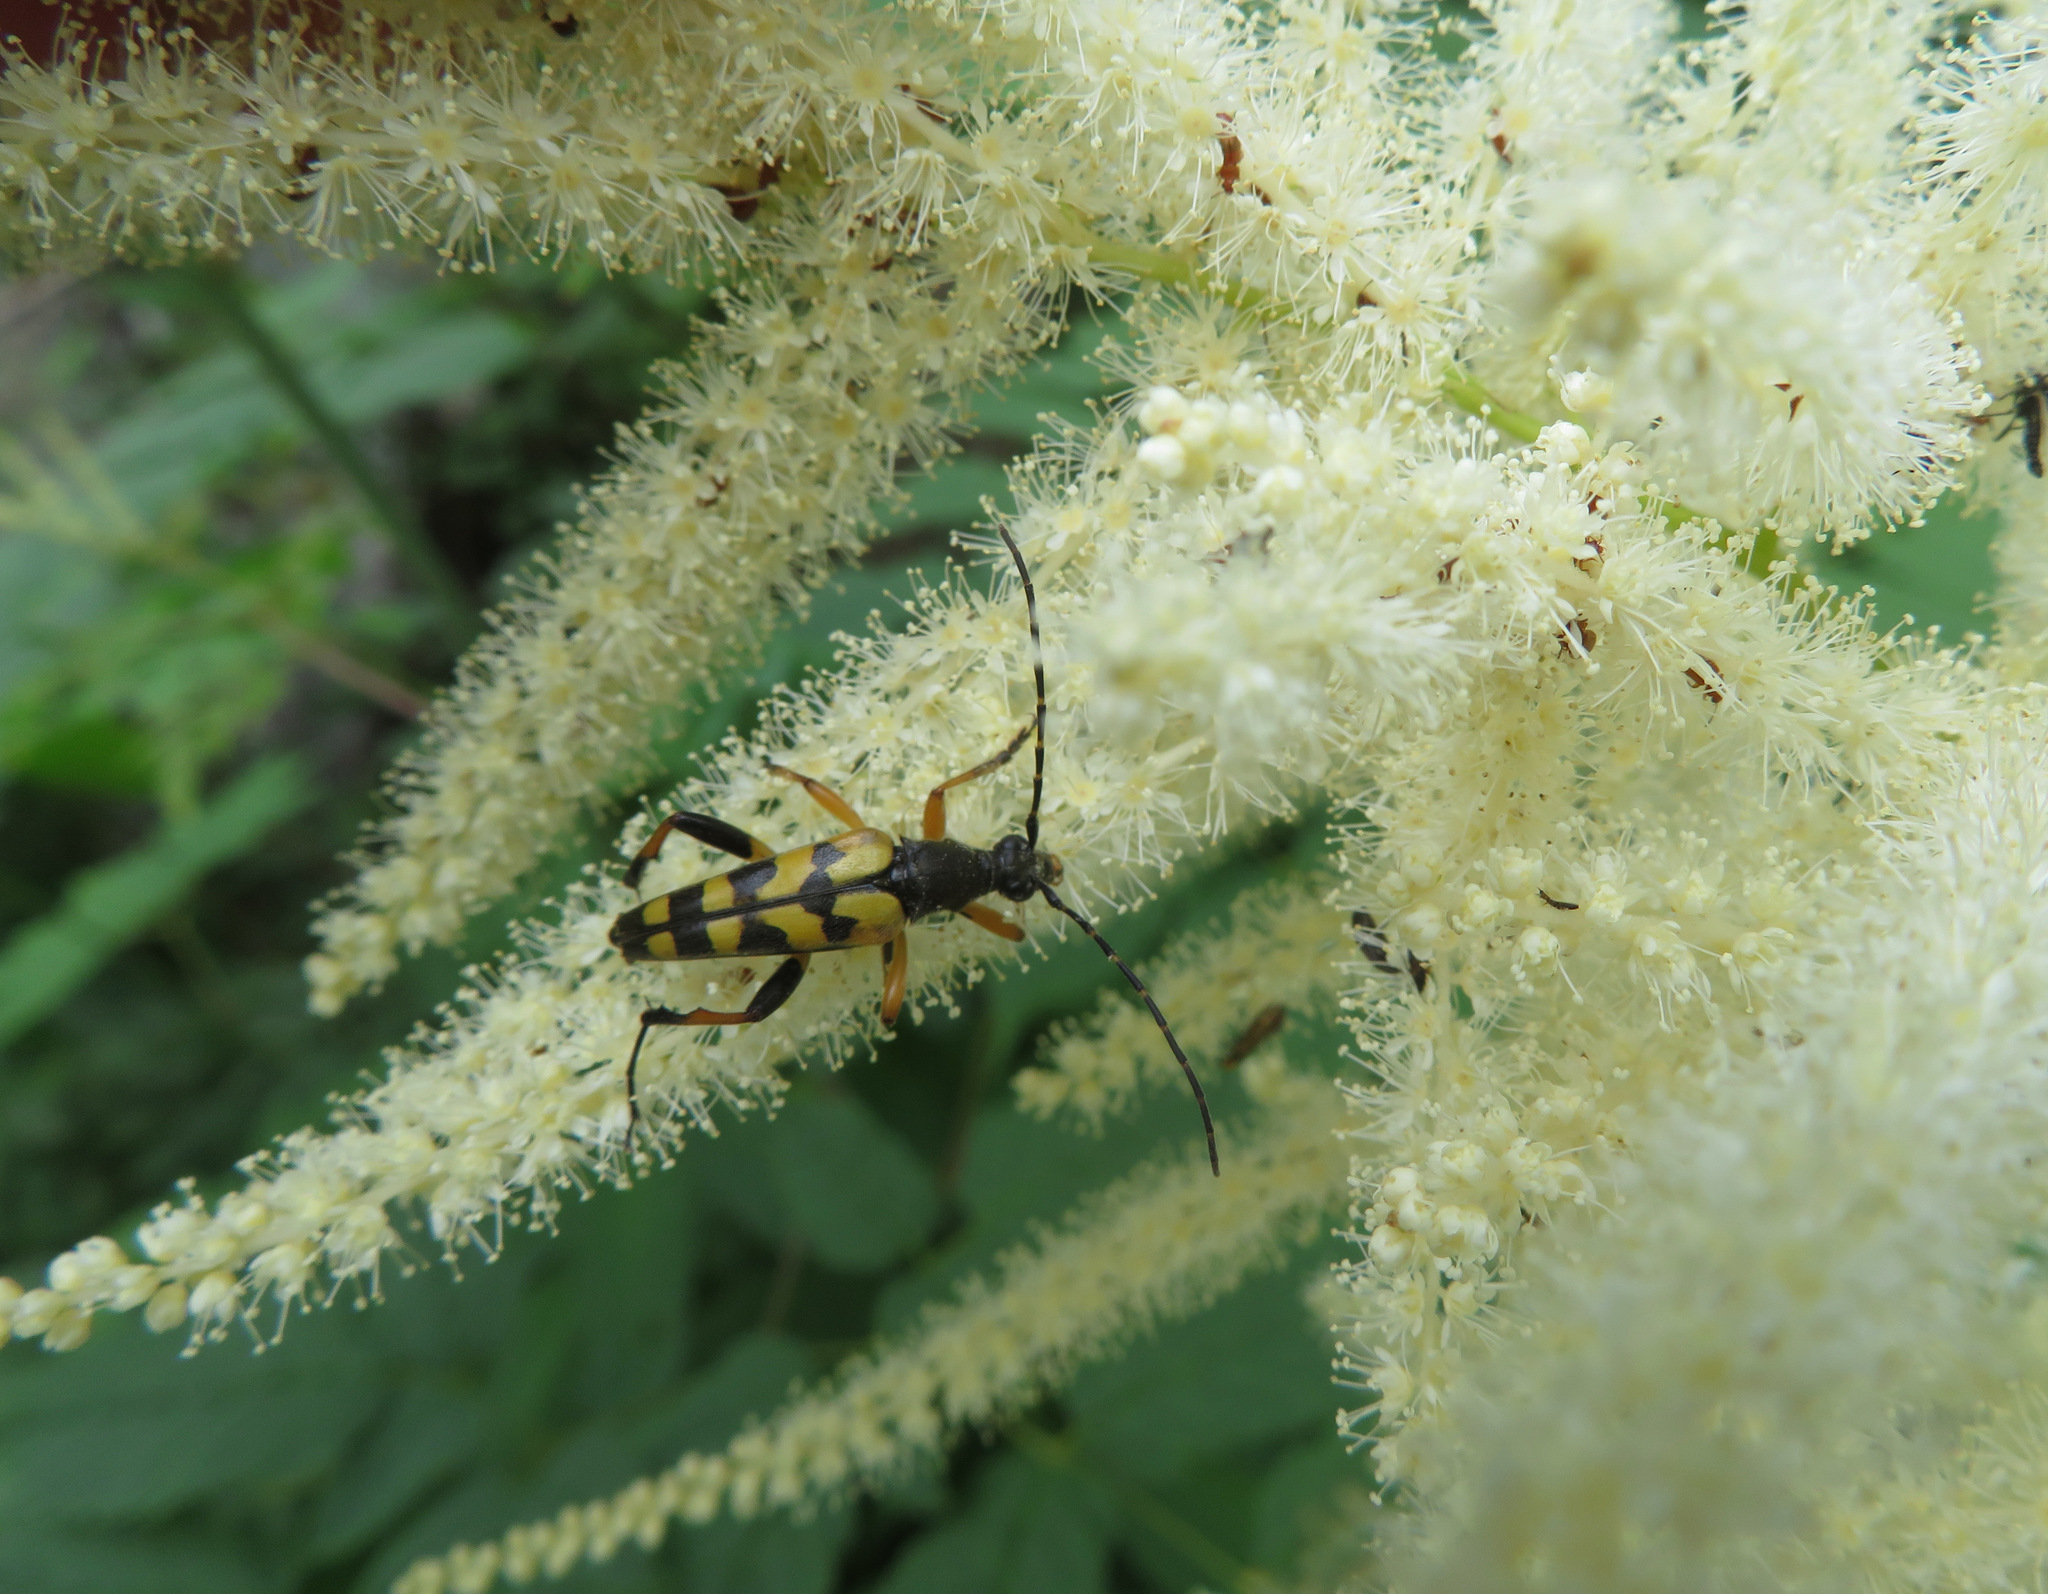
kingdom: Animalia
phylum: Arthropoda
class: Insecta
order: Coleoptera
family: Cerambycidae
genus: Rutpela
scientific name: Rutpela maculata
